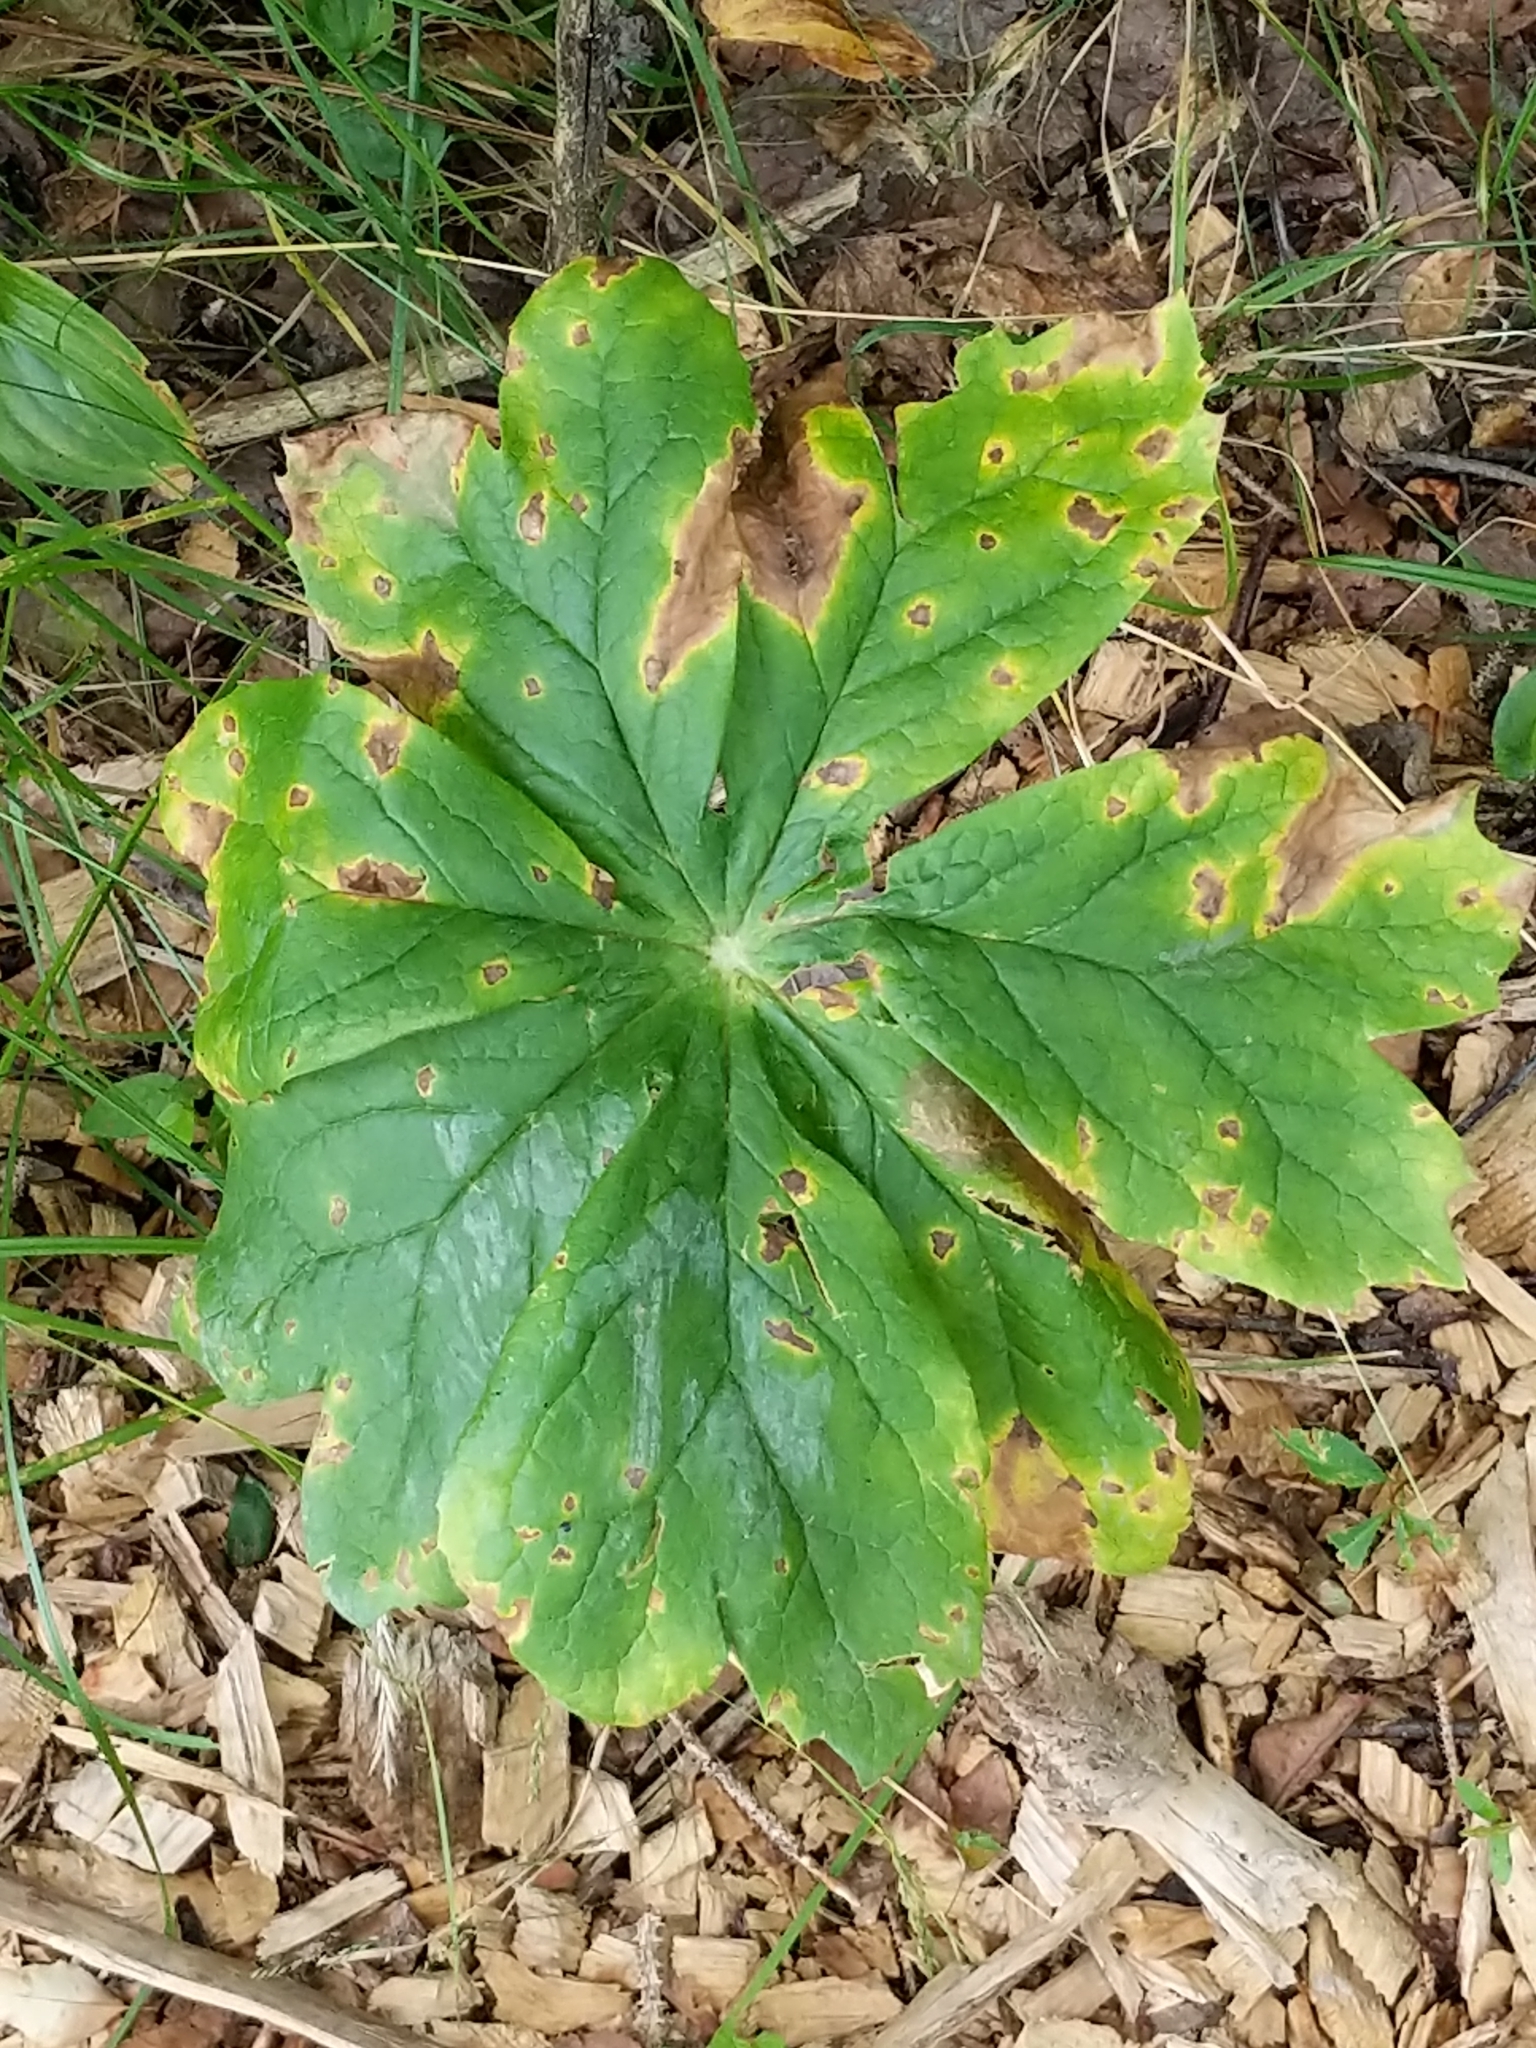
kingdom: Plantae
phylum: Tracheophyta
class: Magnoliopsida
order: Ranunculales
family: Berberidaceae
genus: Podophyllum
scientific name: Podophyllum peltatum
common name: Wild mandrake
